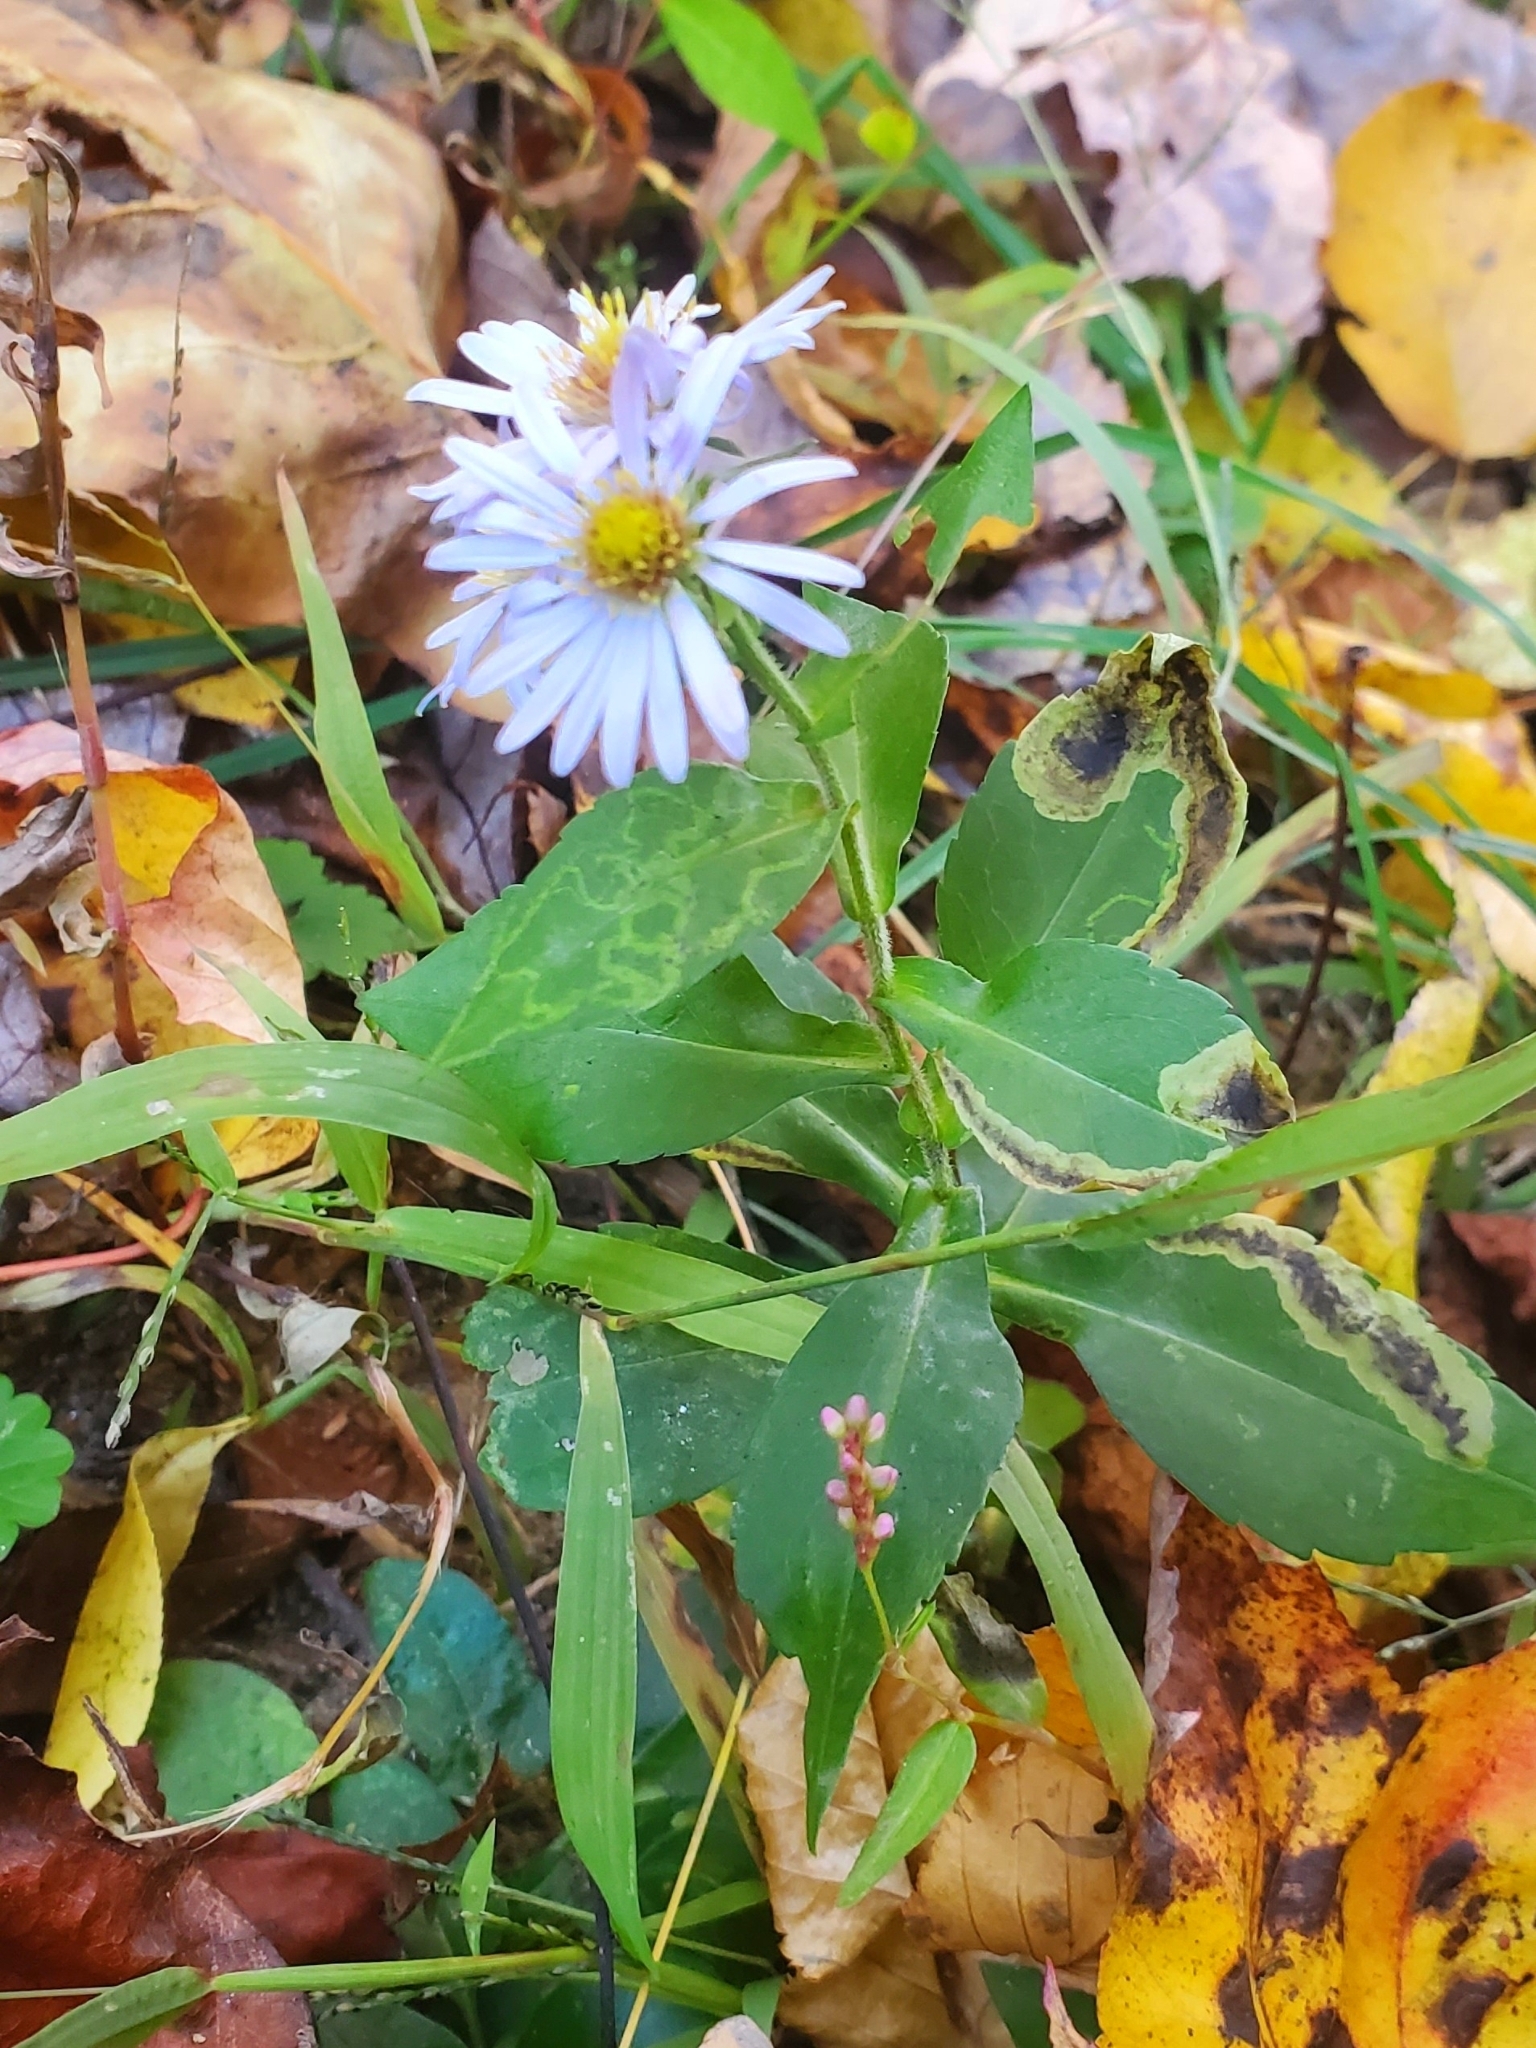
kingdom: Animalia
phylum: Arthropoda
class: Insecta
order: Diptera
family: Agromyzidae
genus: Nemorimyza
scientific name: Nemorimyza posticata
